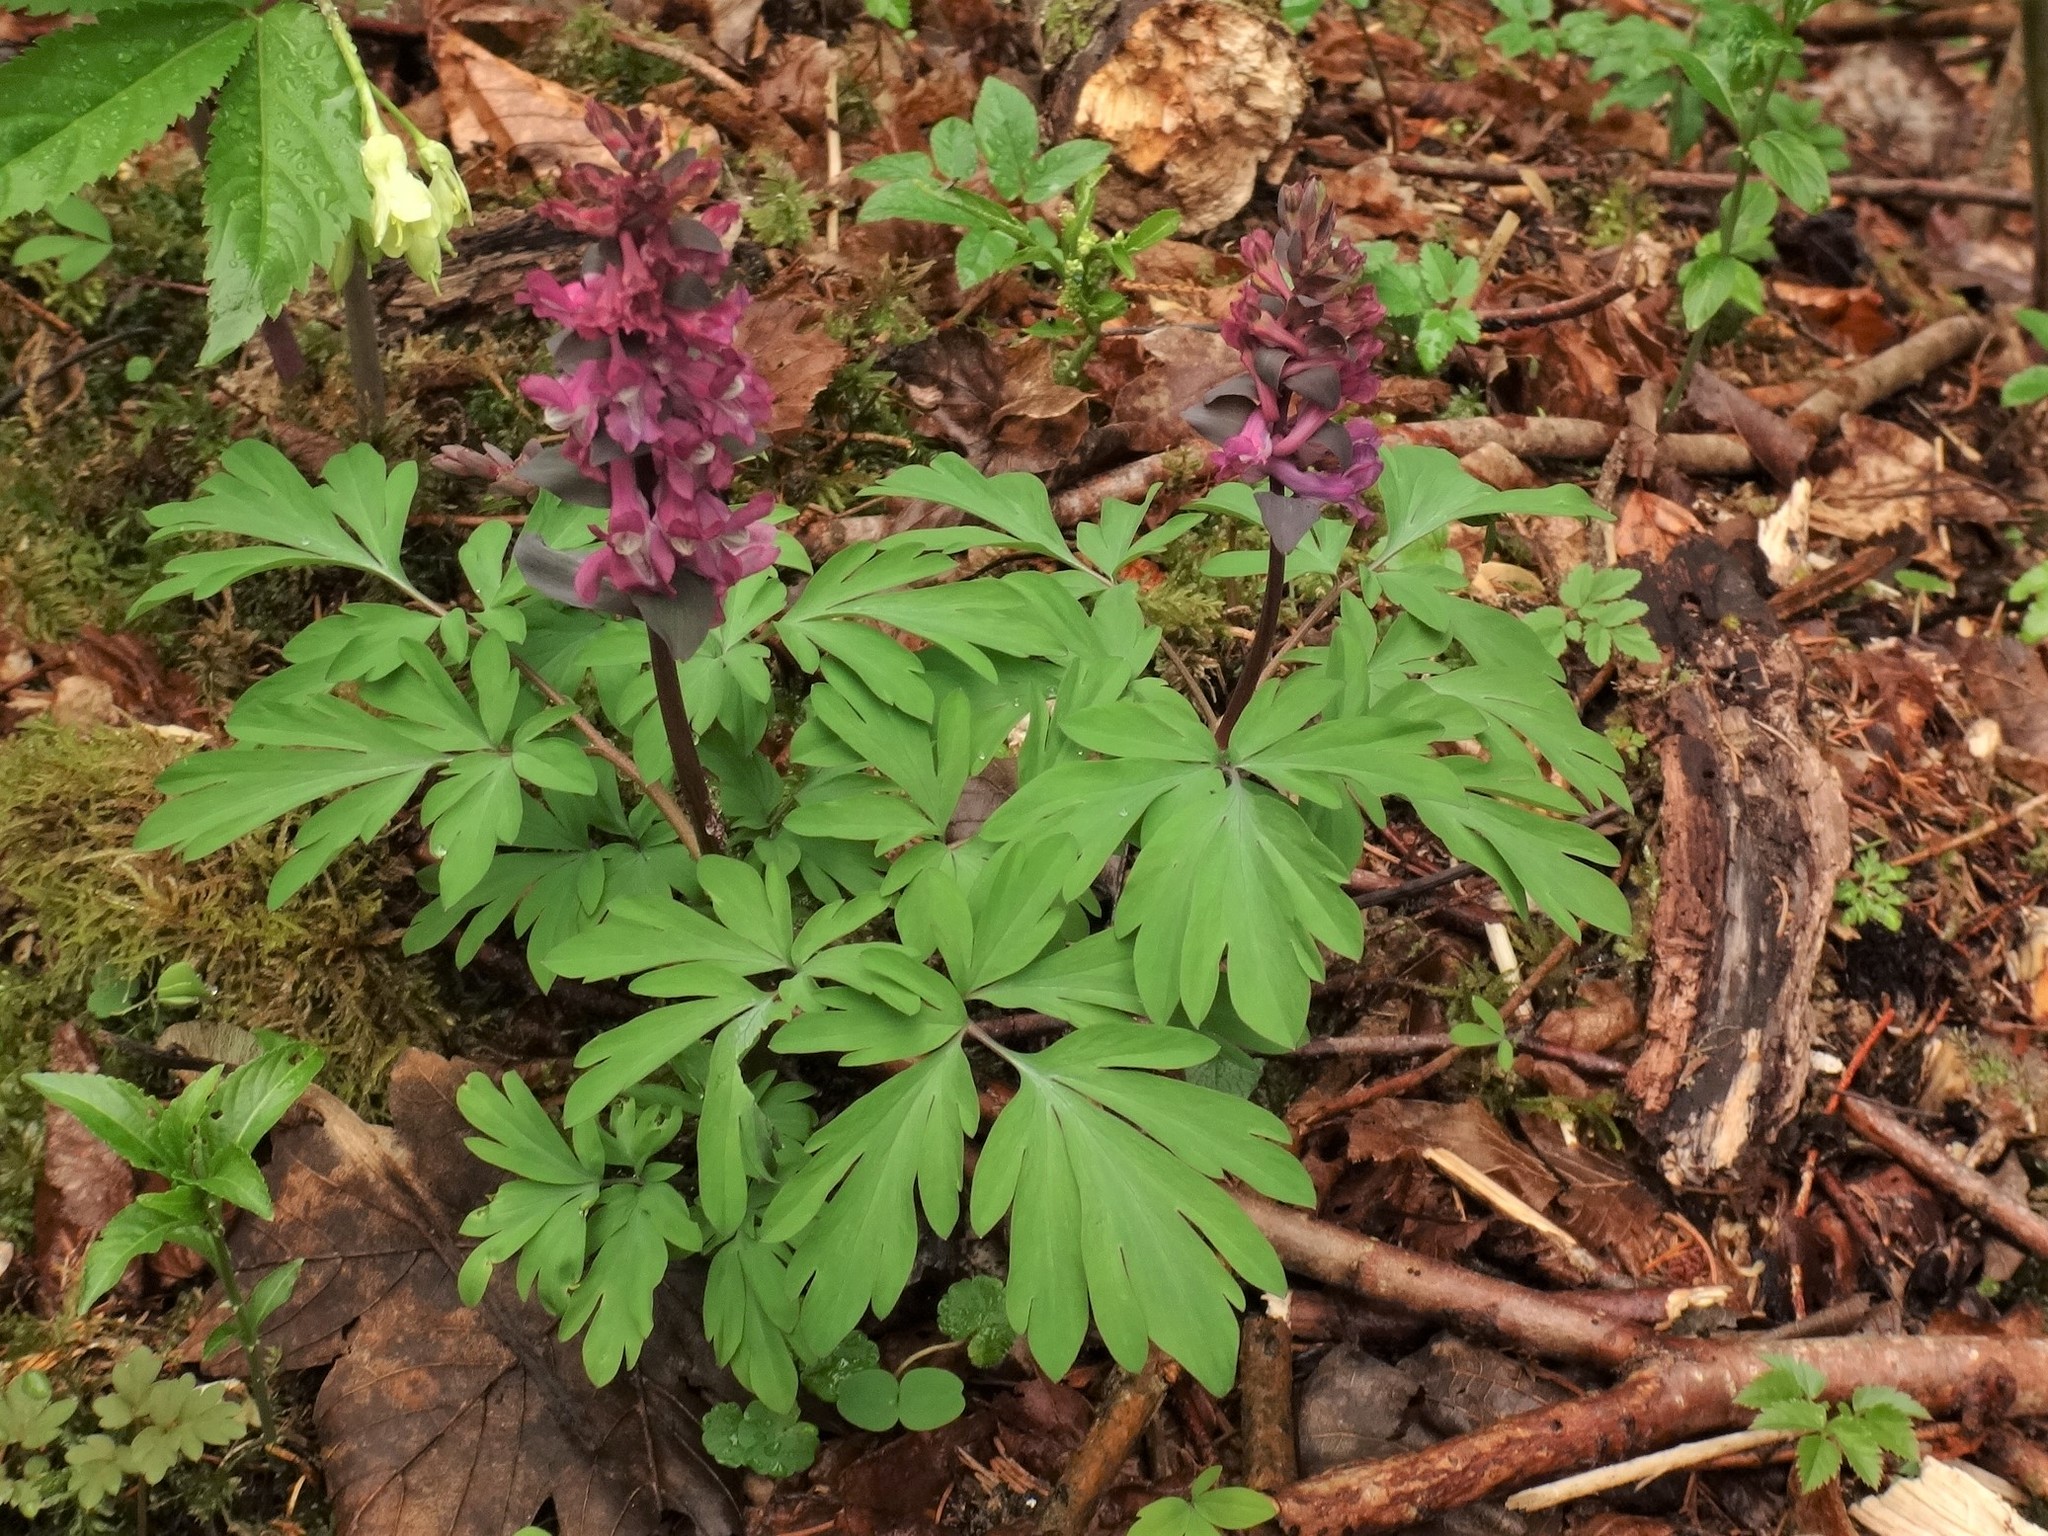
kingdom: Plantae
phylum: Tracheophyta
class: Magnoliopsida
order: Ranunculales
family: Papaveraceae
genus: Corydalis
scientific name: Corydalis cava
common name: Hollowroot
